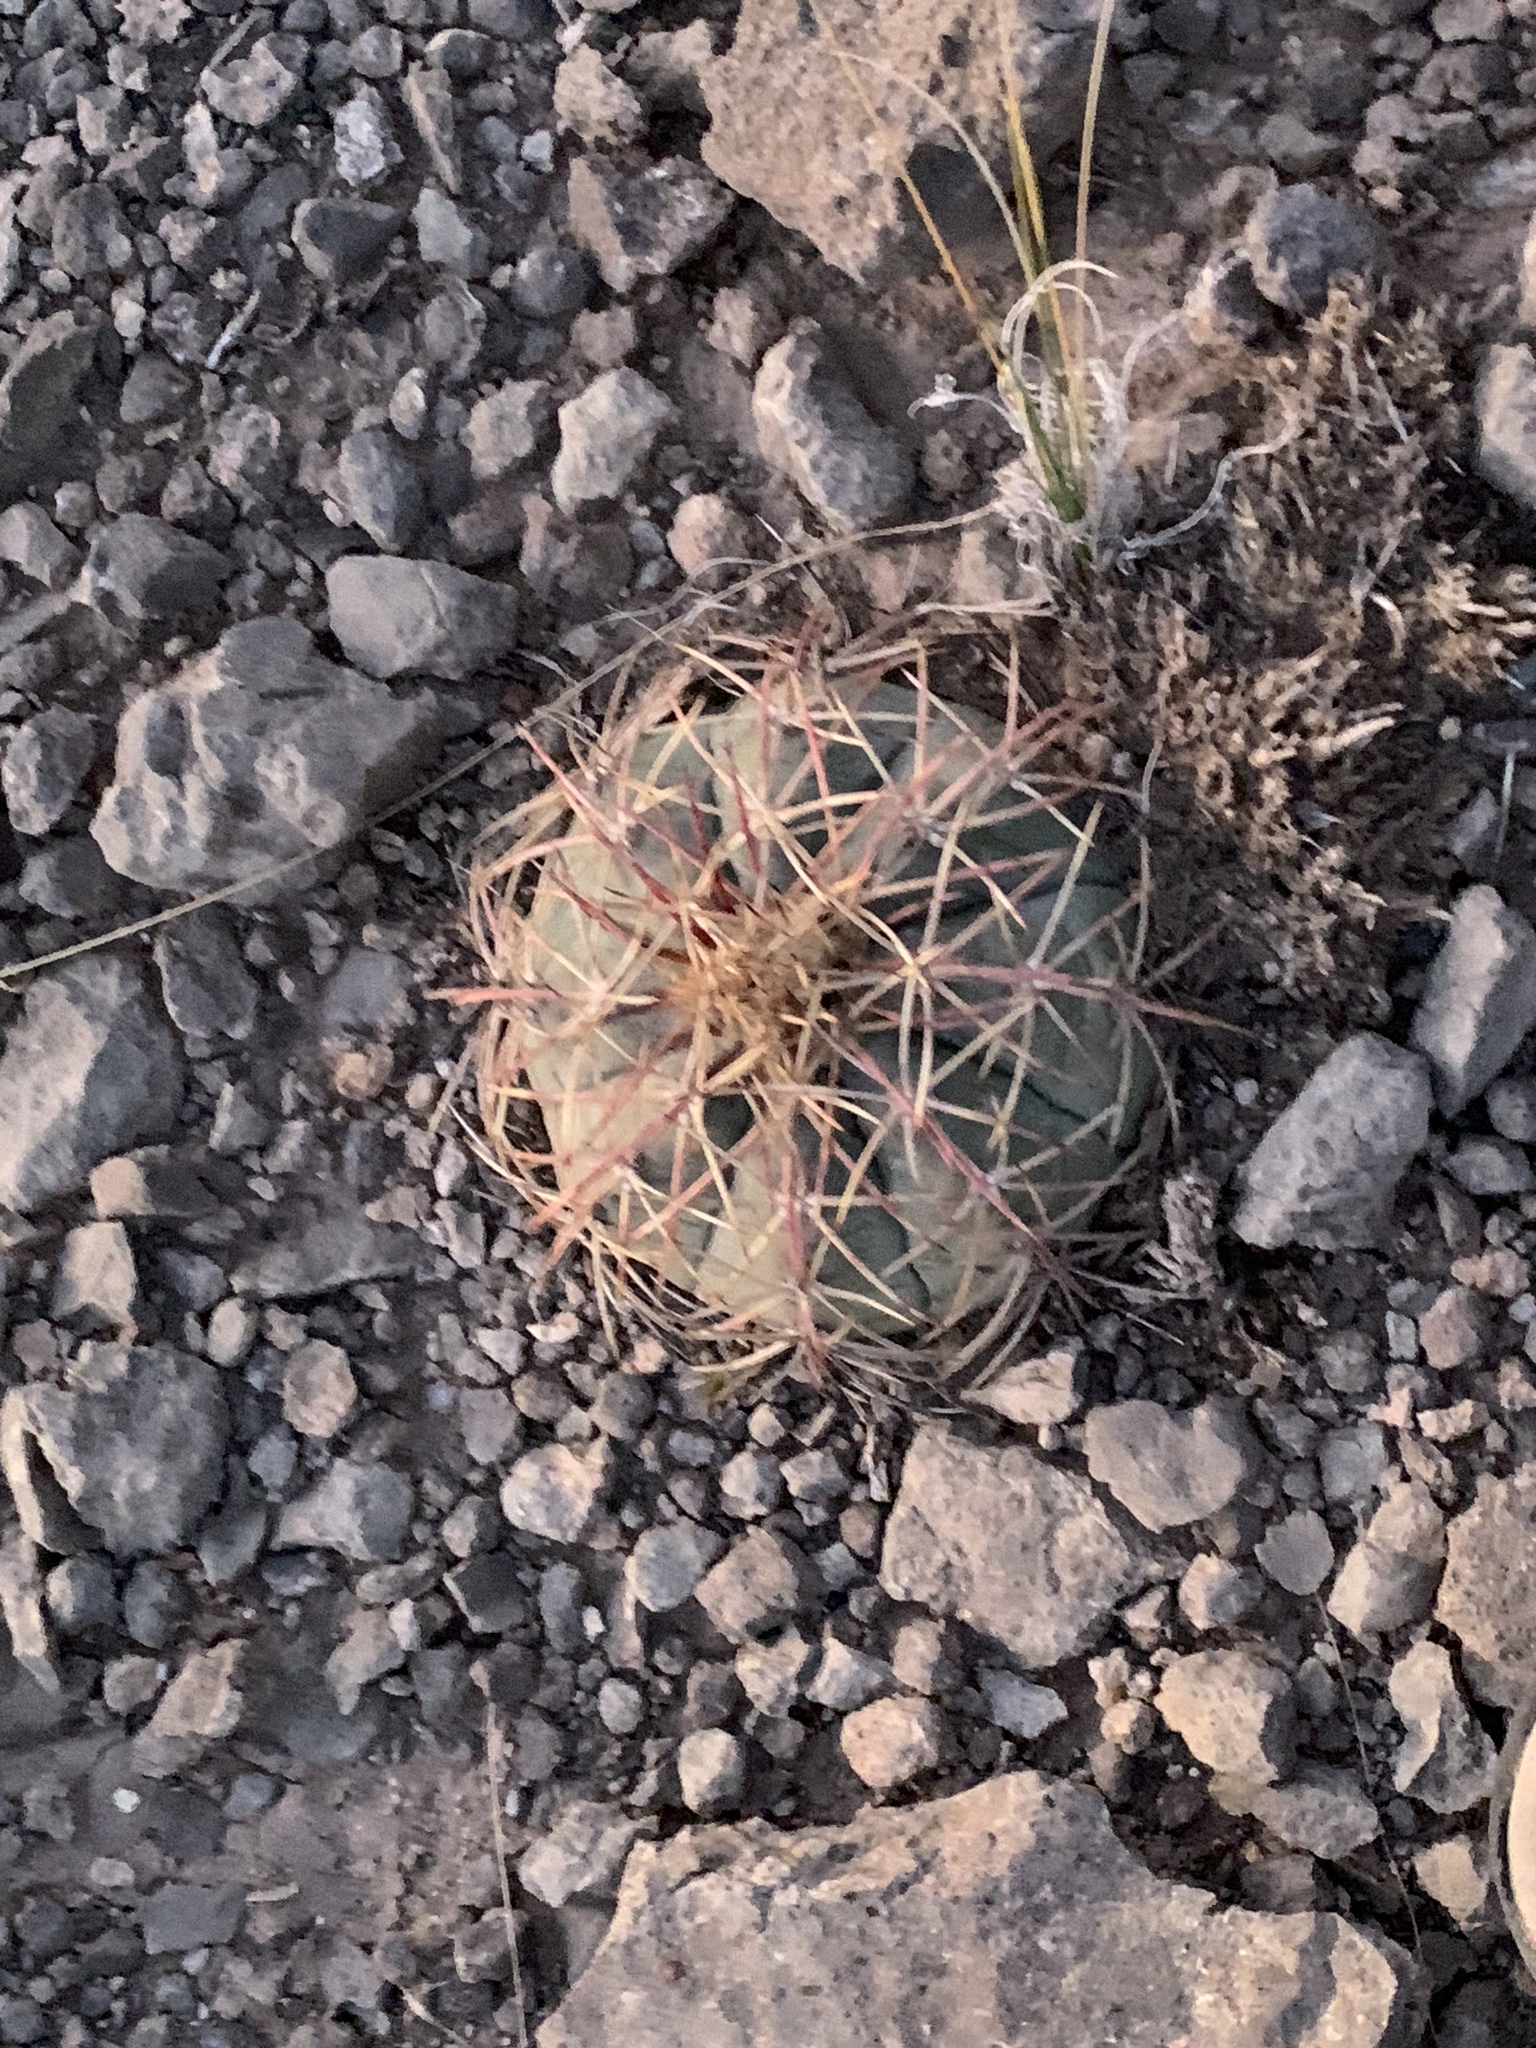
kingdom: Plantae
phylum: Tracheophyta
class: Magnoliopsida
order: Caryophyllales
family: Cactaceae
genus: Echinocactus
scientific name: Echinocactus horizonthalonius
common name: Devilshead
